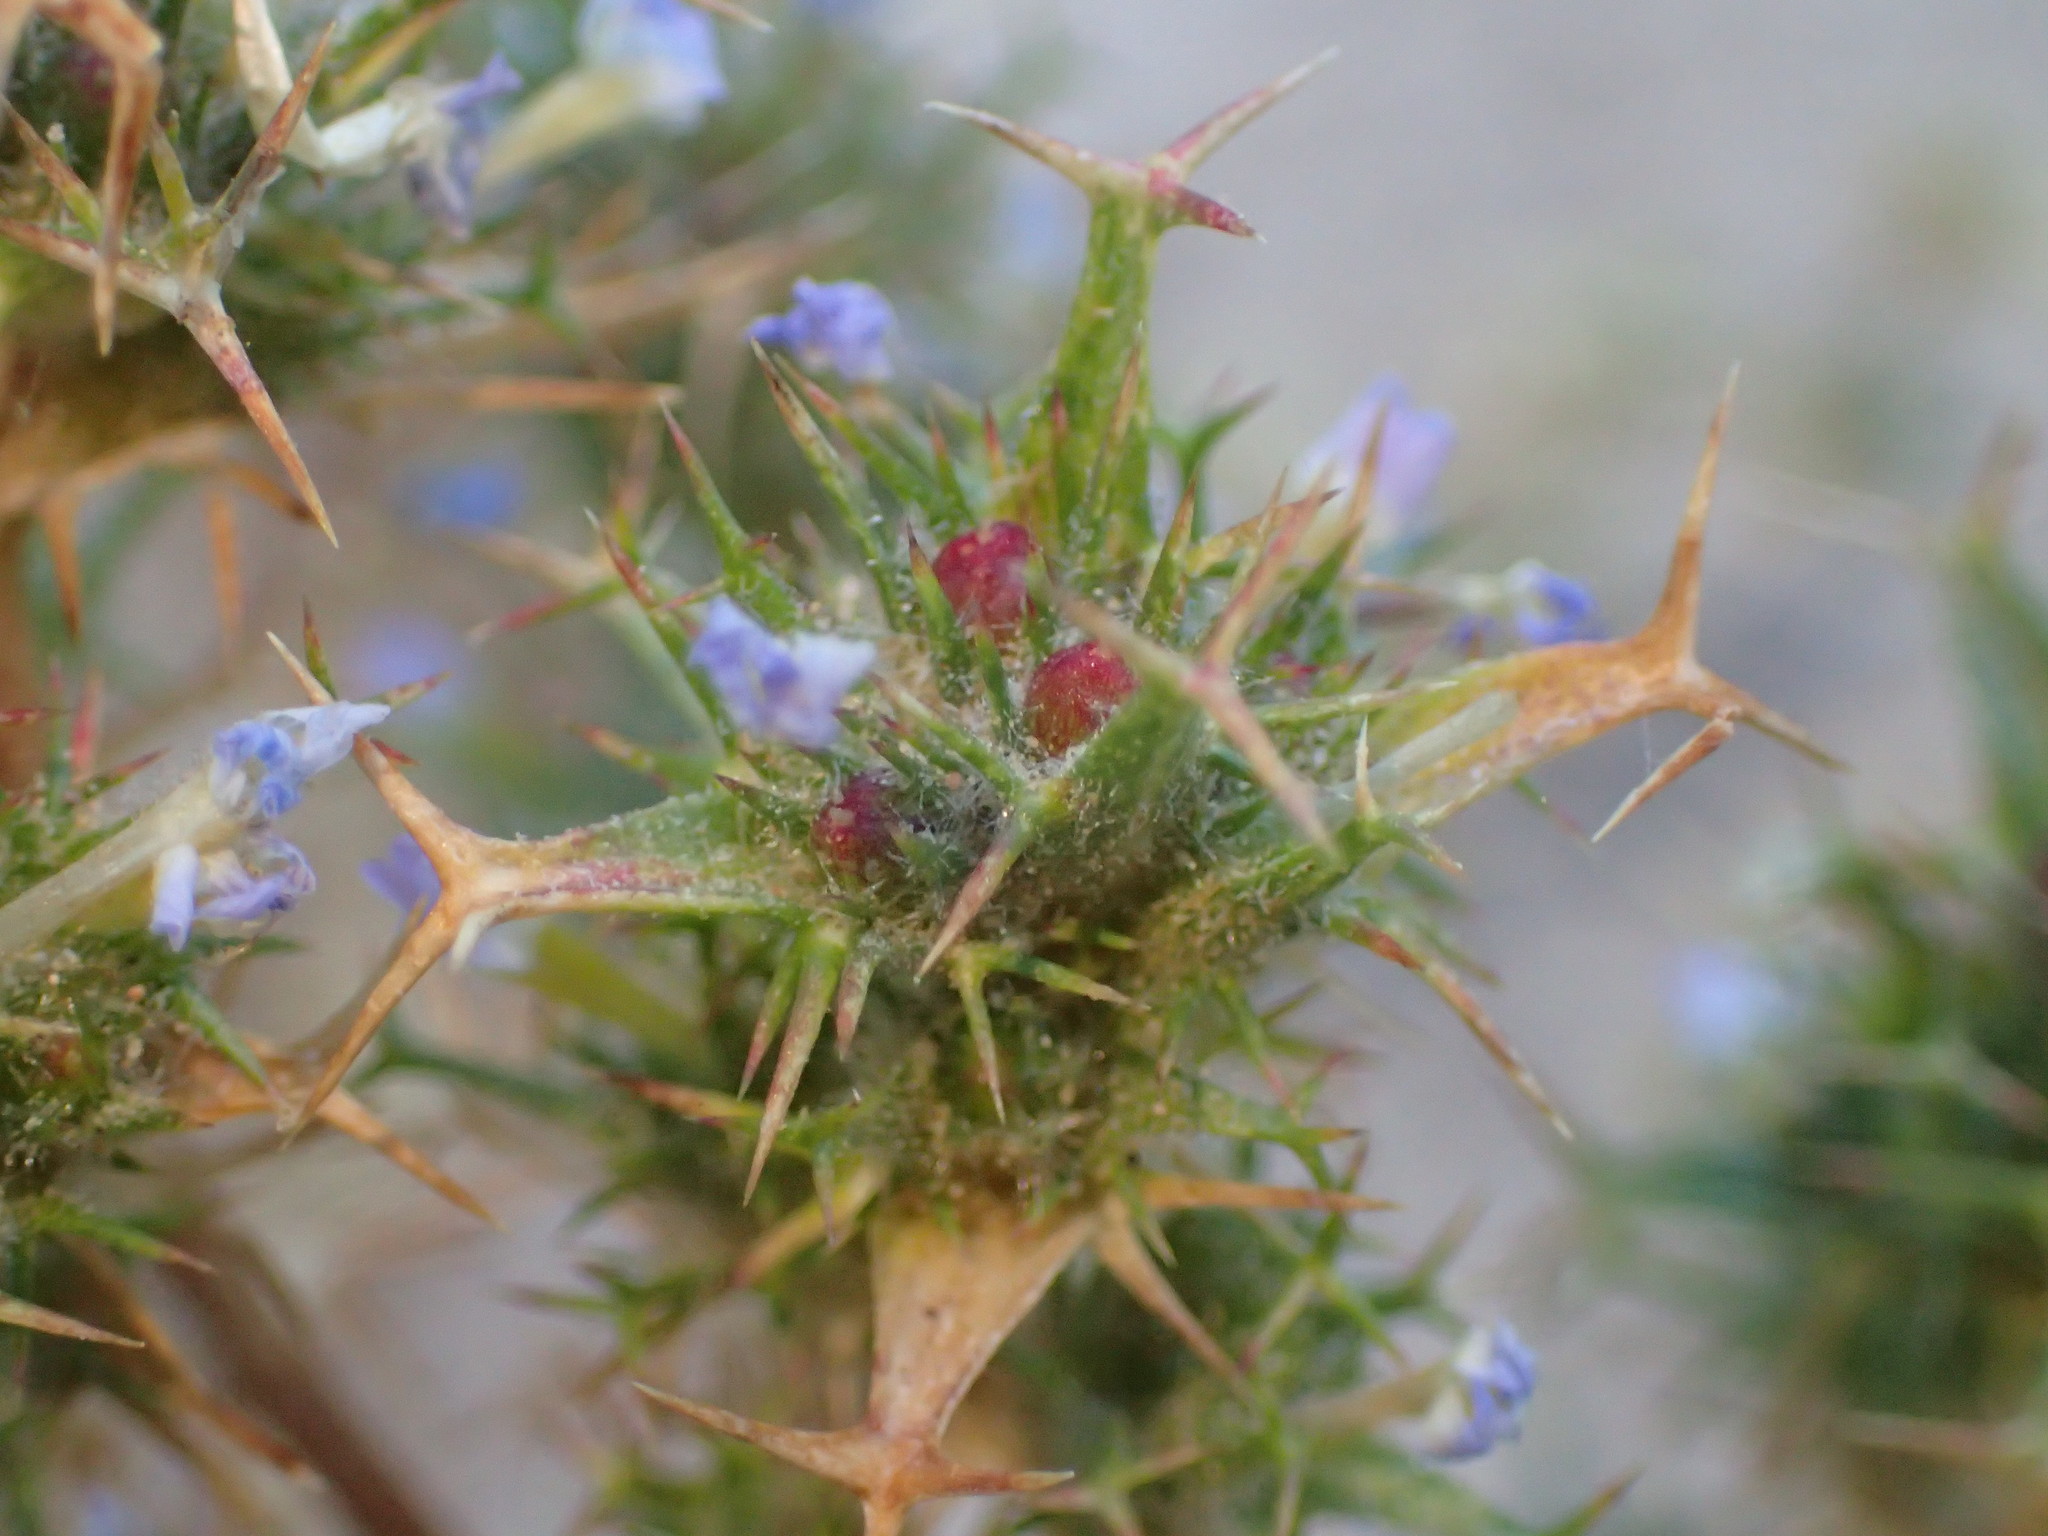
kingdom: Plantae
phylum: Tracheophyta
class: Magnoliopsida
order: Ericales
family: Polemoniaceae
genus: Navarretia
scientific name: Navarretia hamata
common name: Hooked navarretia
